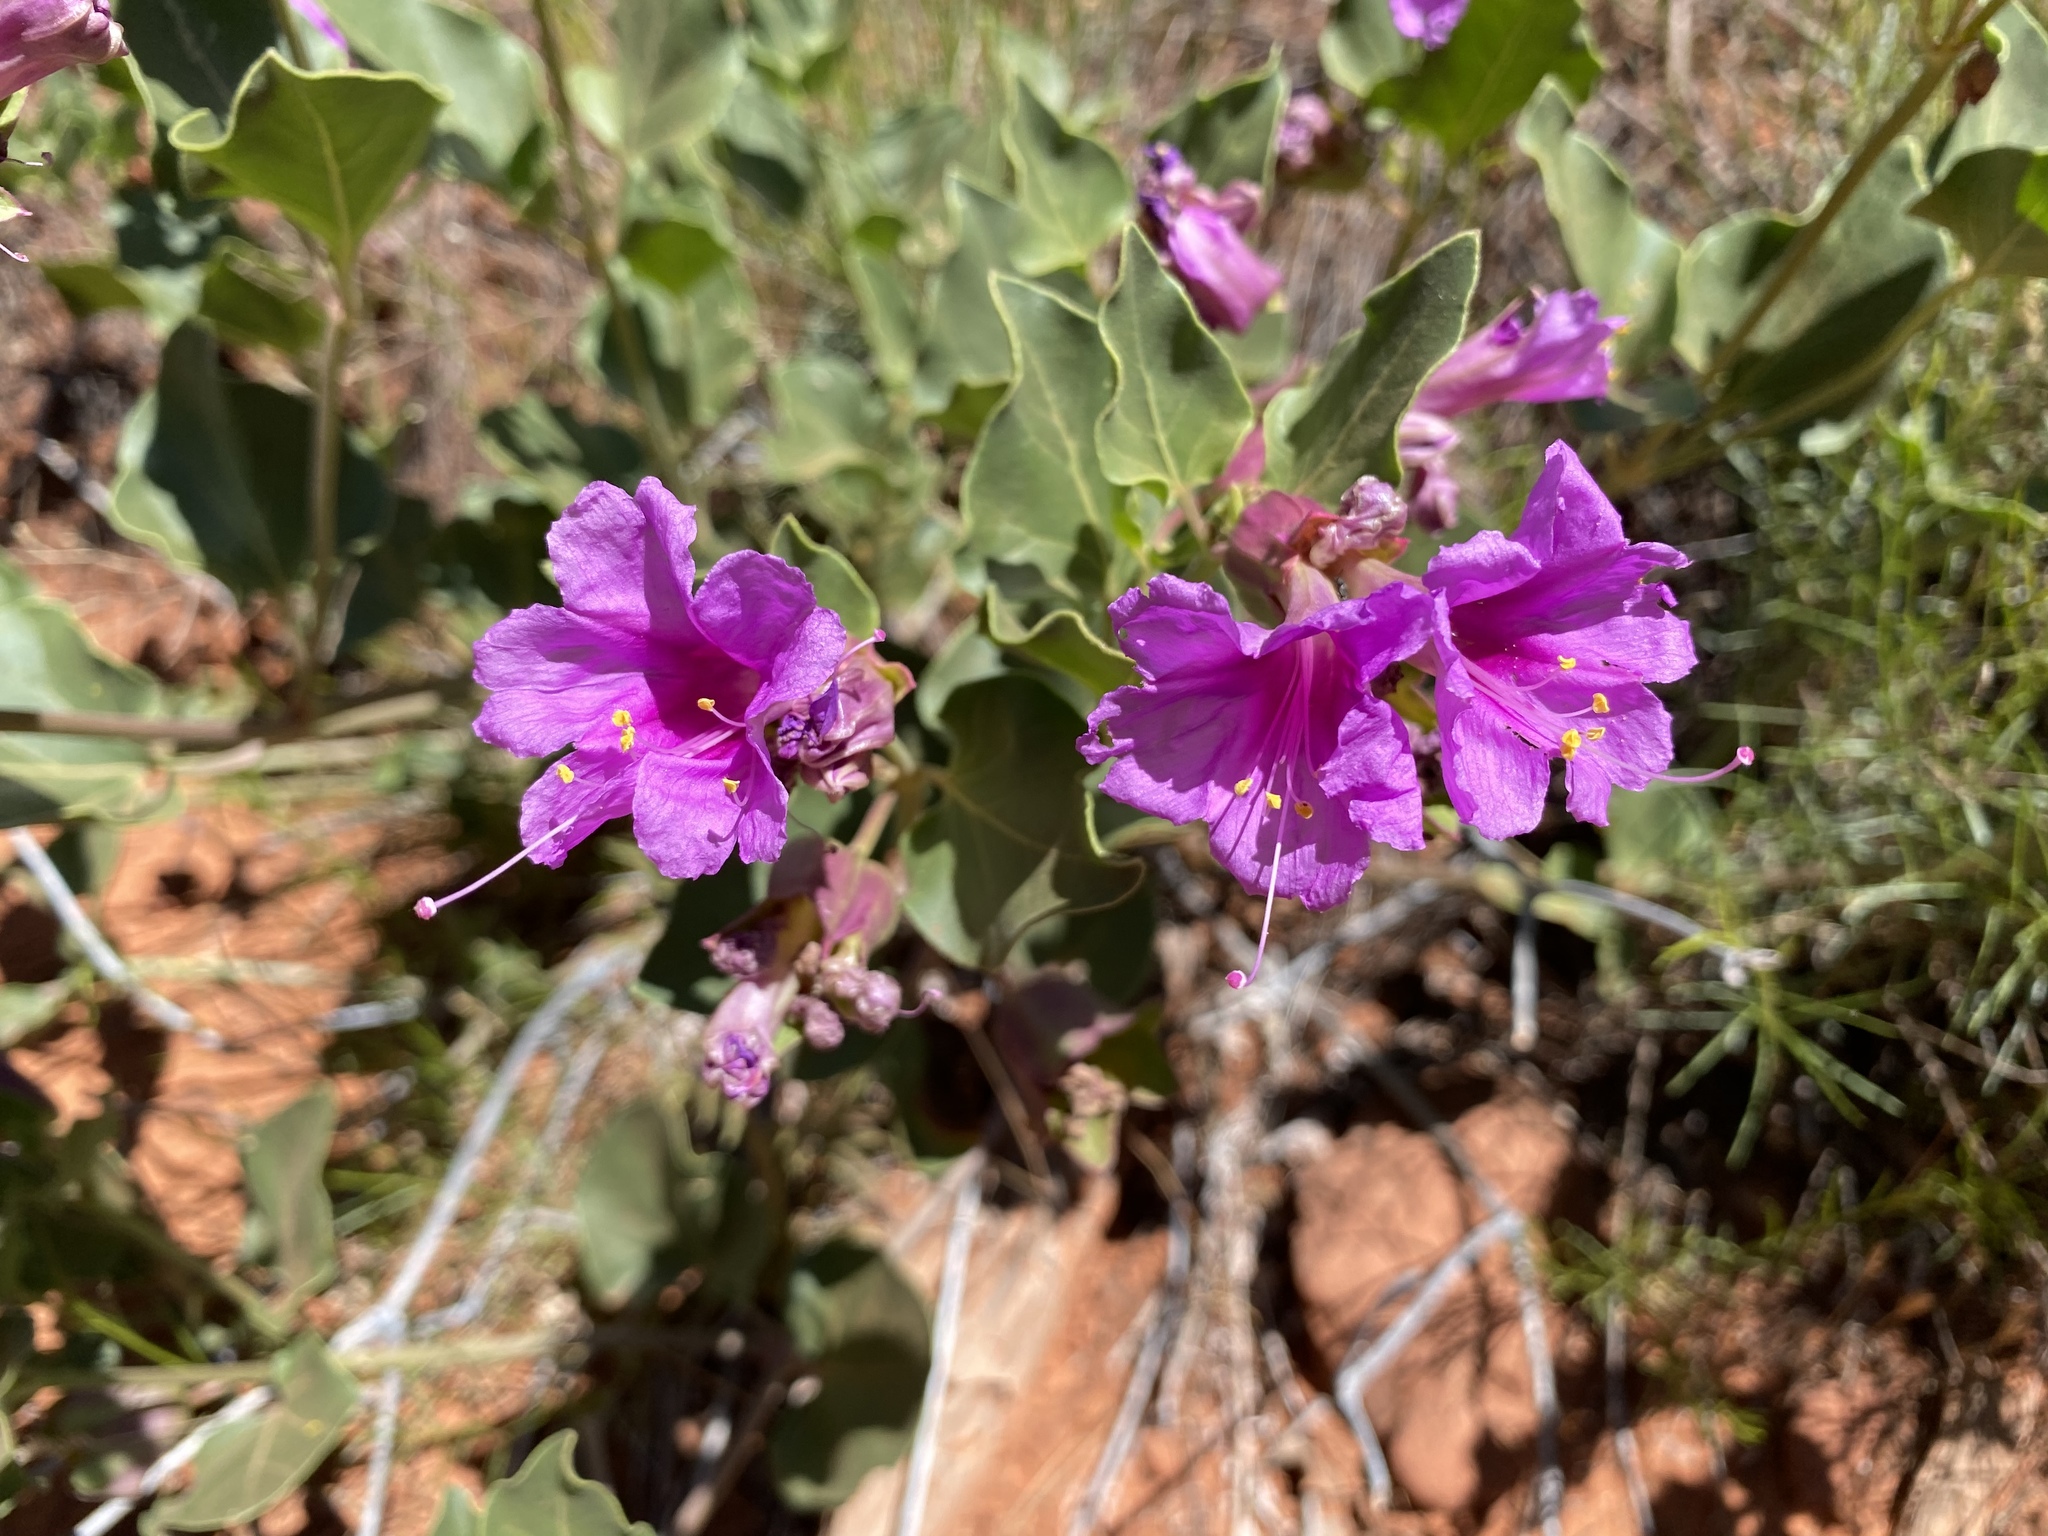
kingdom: Plantae
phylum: Tracheophyta
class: Magnoliopsida
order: Caryophyllales
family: Nyctaginaceae
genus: Mirabilis
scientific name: Mirabilis multiflora
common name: Froebel's four-o'clock
